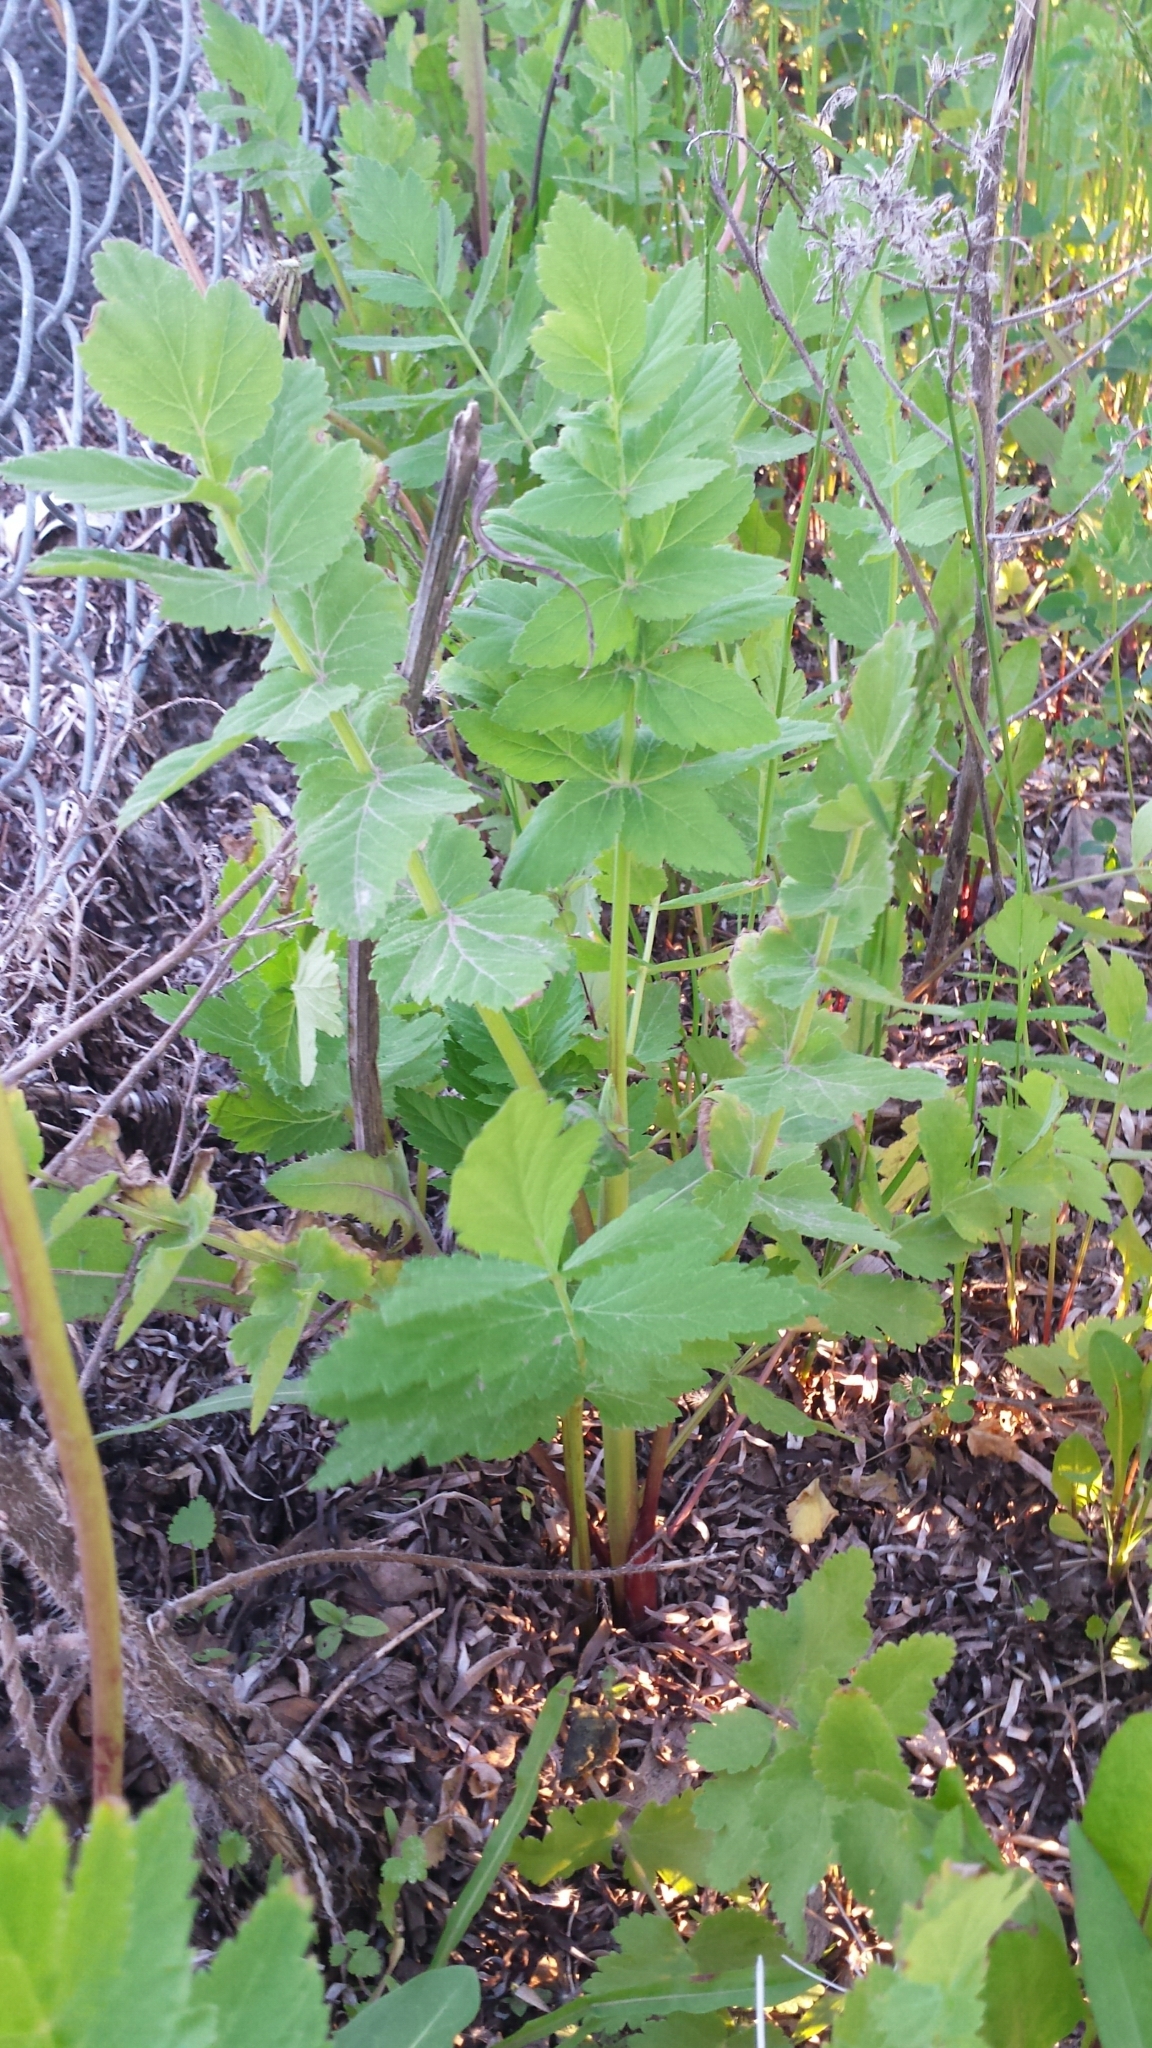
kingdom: Plantae
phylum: Tracheophyta
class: Magnoliopsida
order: Apiales
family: Apiaceae
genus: Pastinaca
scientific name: Pastinaca sativa
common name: Wild parsnip
